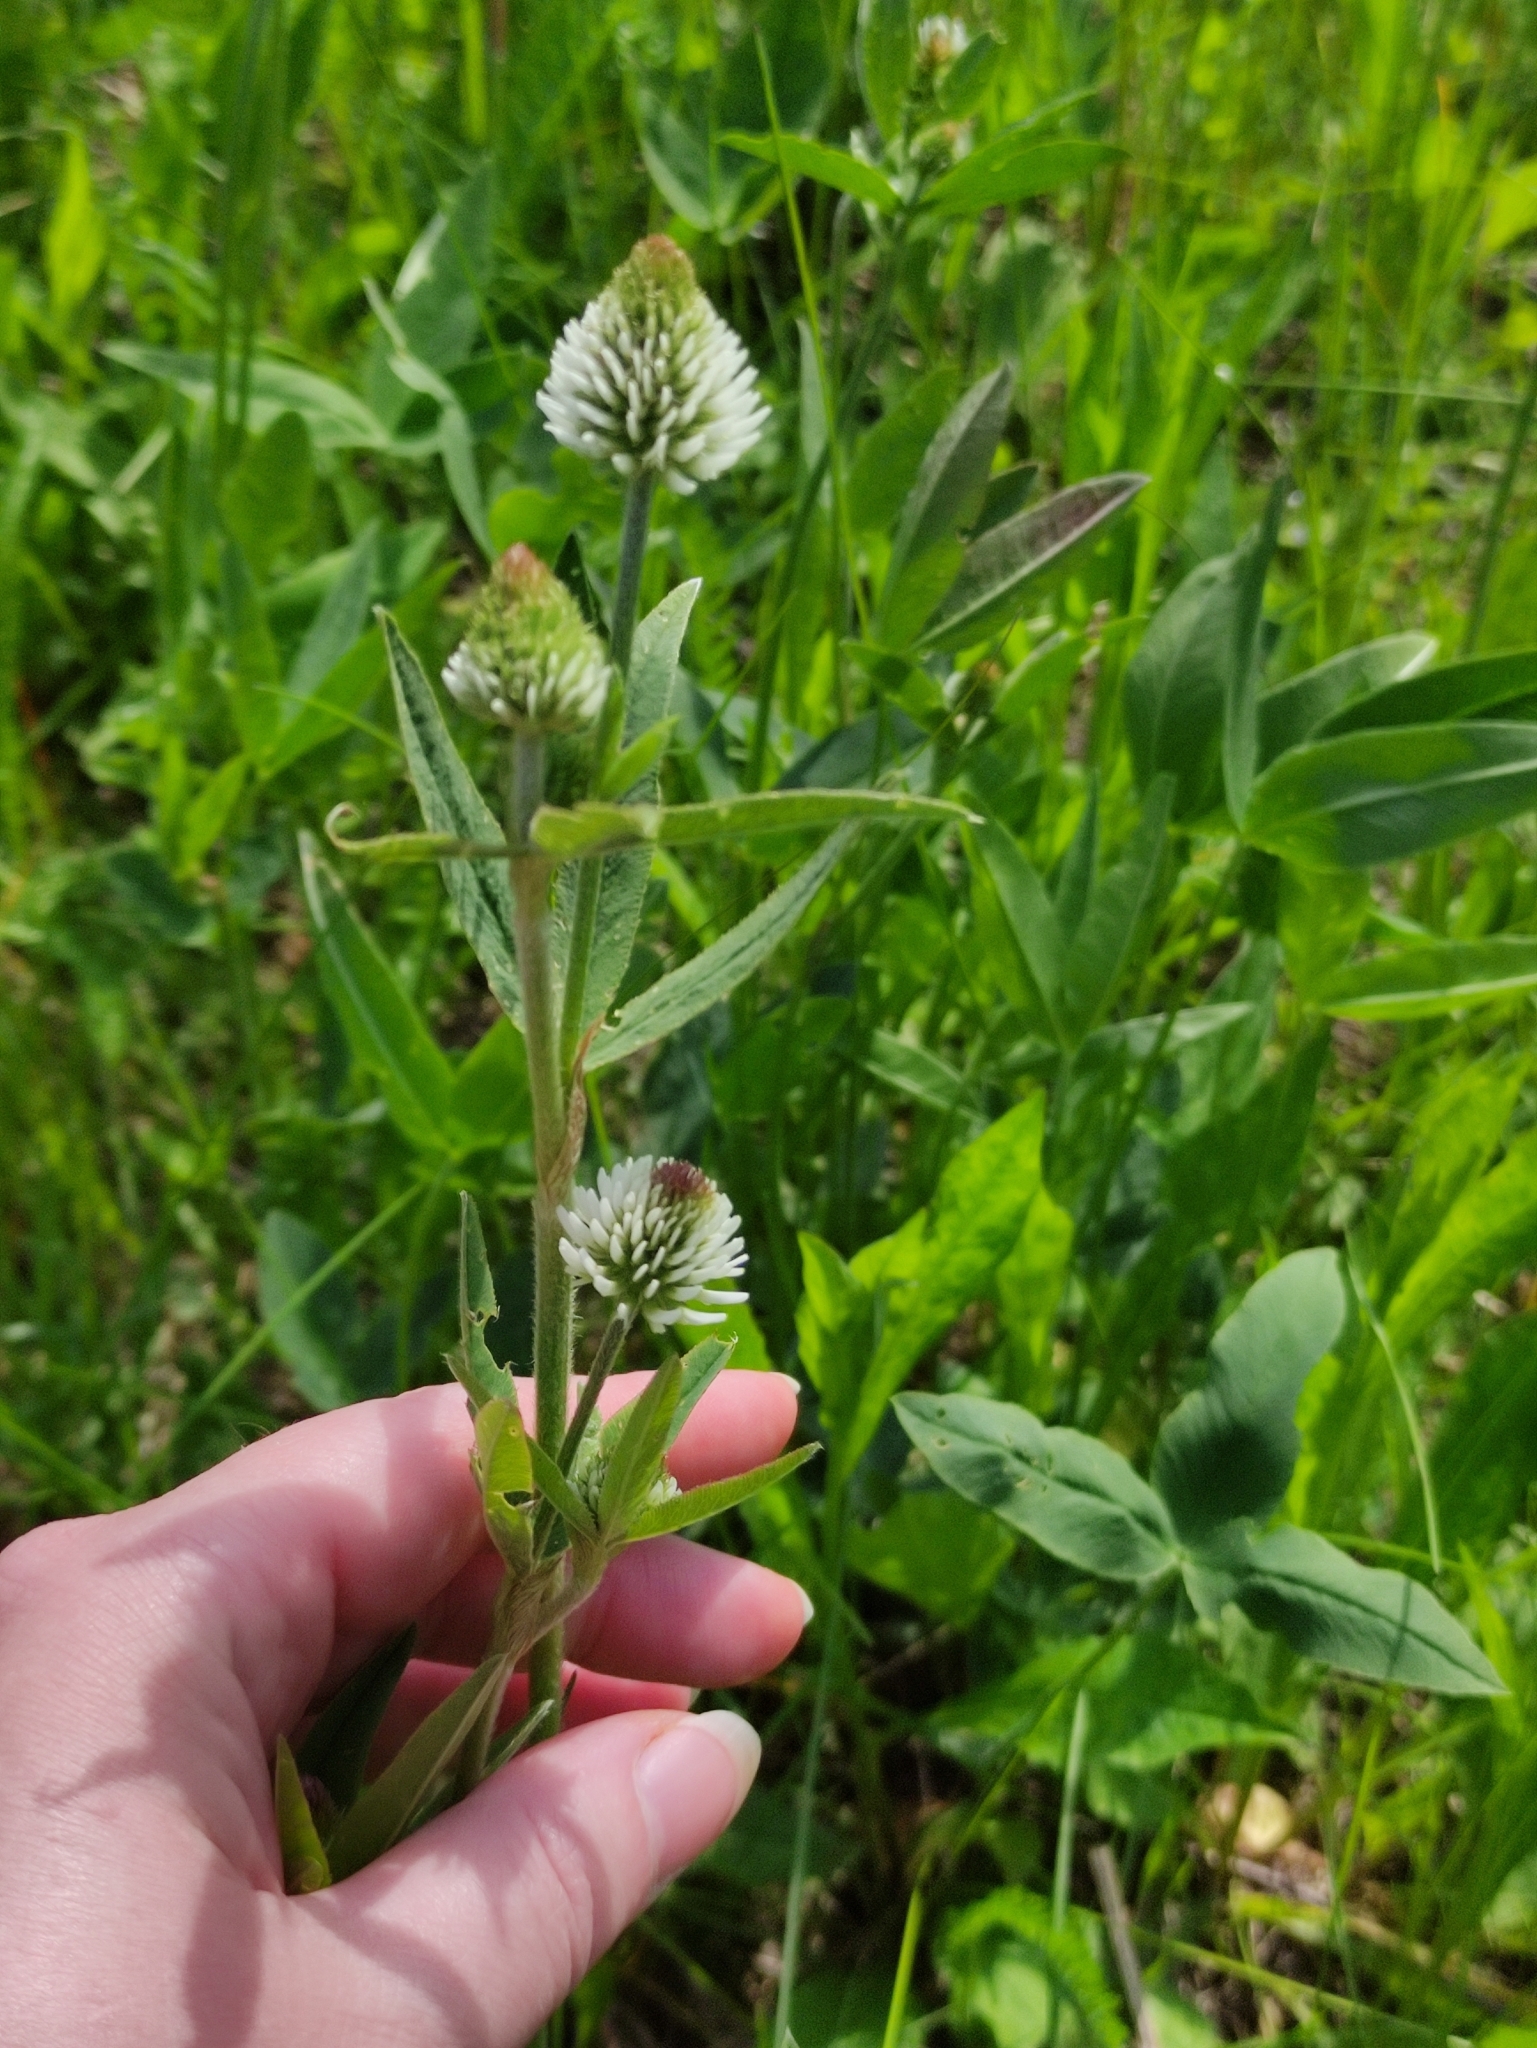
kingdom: Plantae
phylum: Tracheophyta
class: Magnoliopsida
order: Fabales
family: Fabaceae
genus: Trifolium
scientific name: Trifolium montanum
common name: Mountain clover
